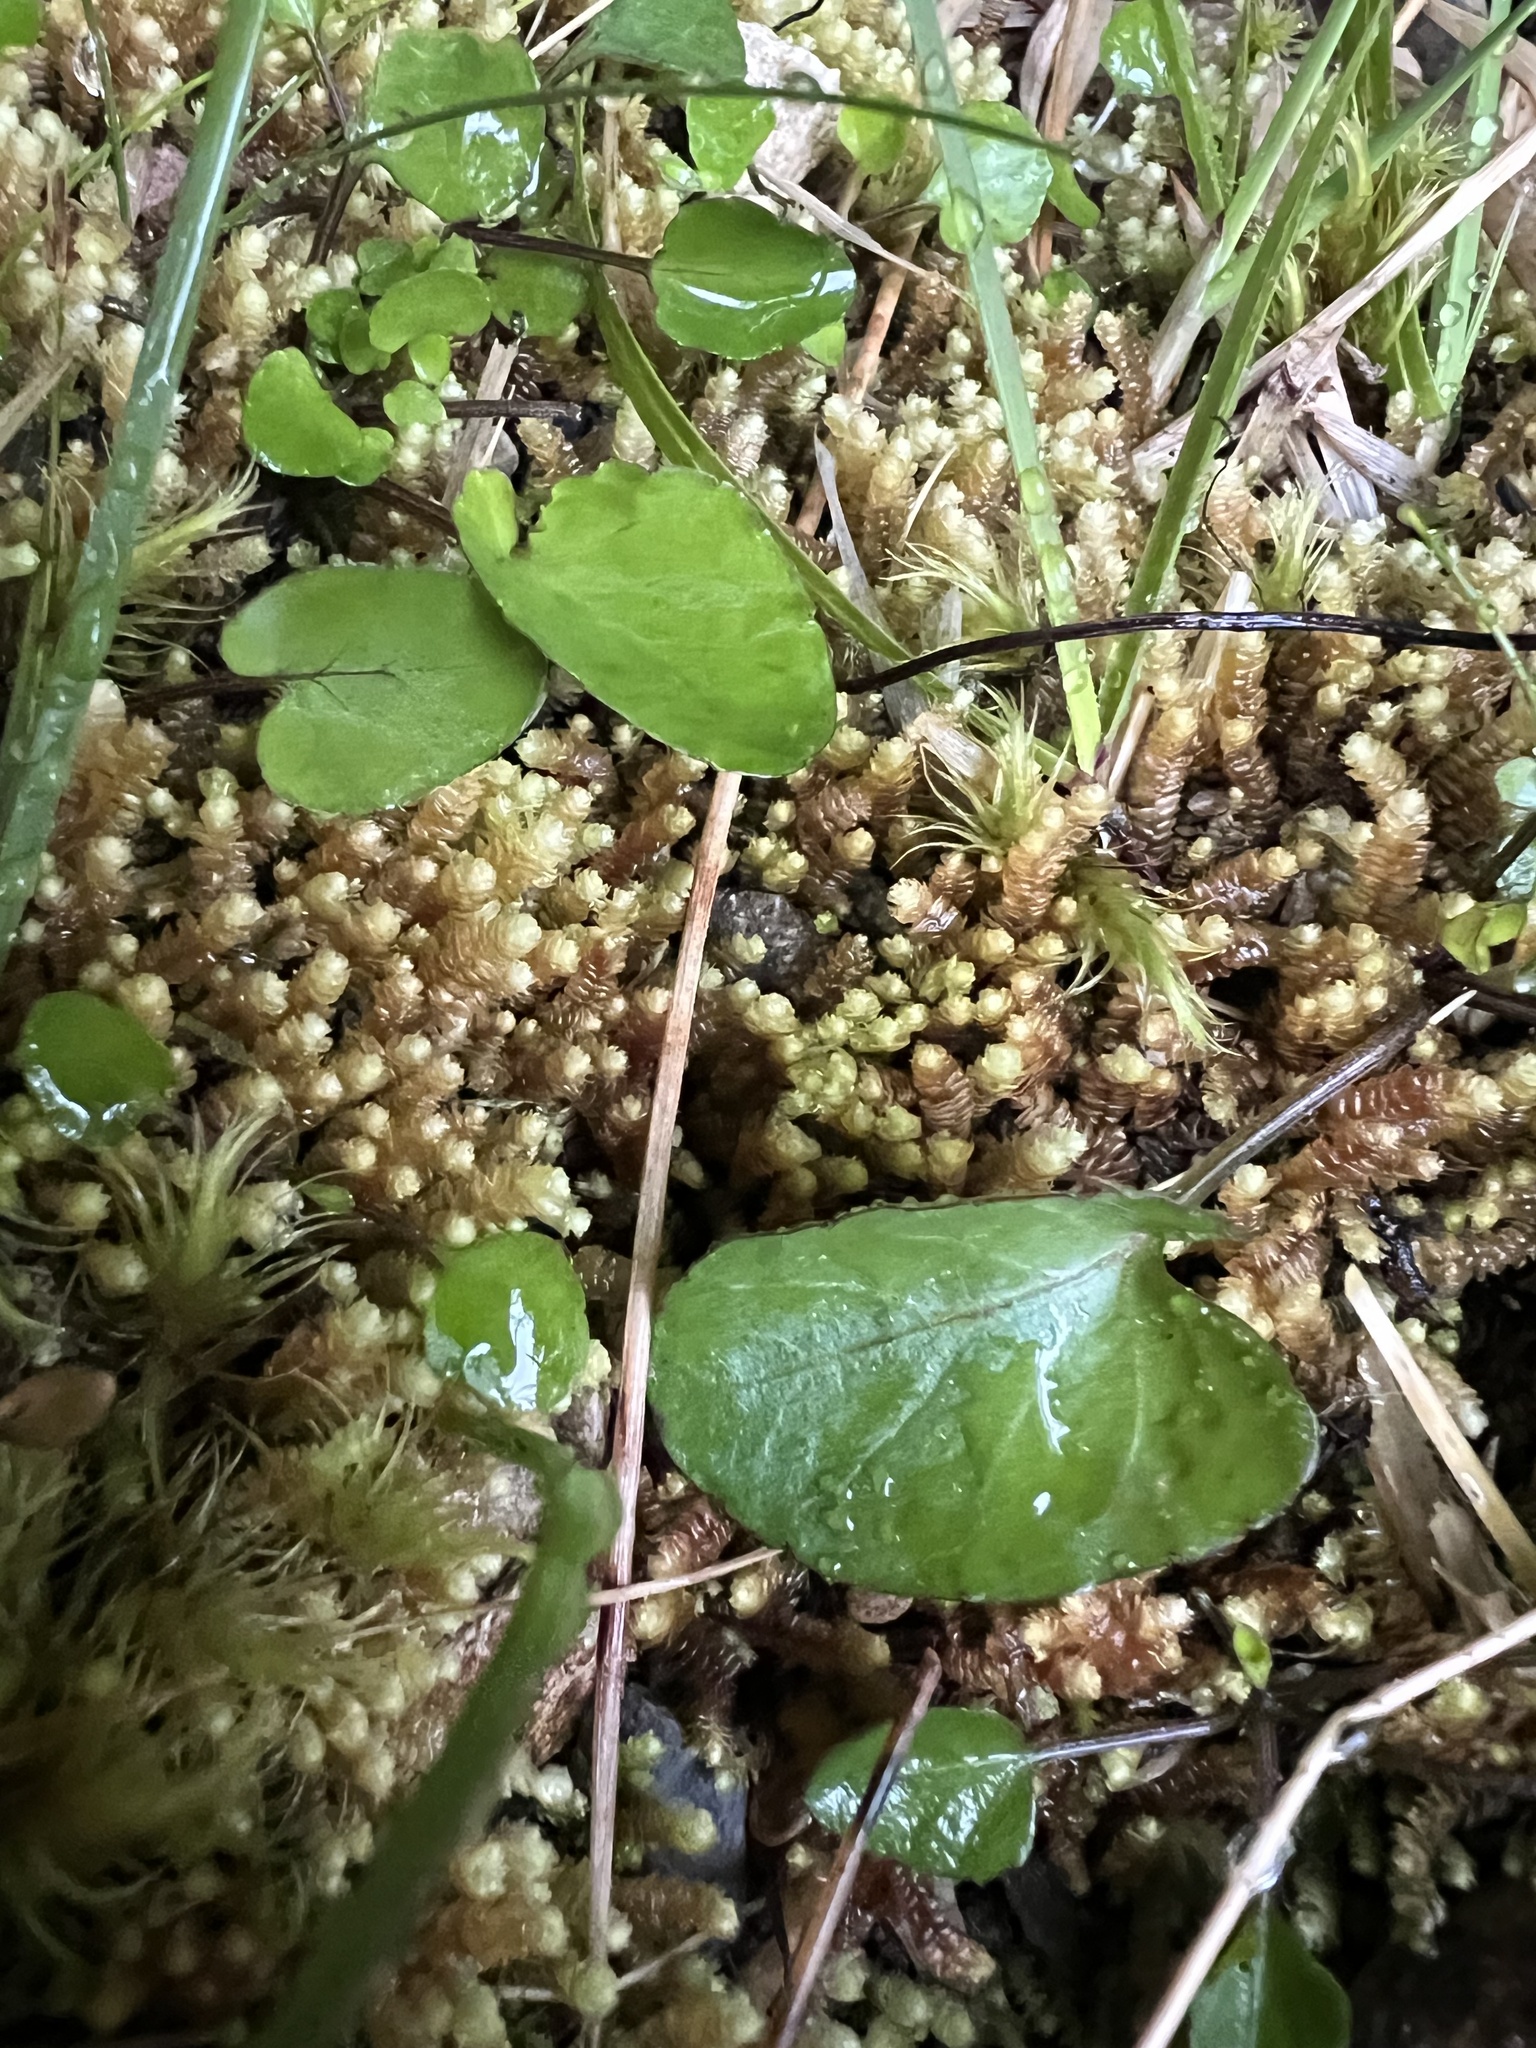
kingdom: Plantae
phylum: Tracheophyta
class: Magnoliopsida
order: Malpighiales
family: Violaceae
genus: Viola
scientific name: Viola cunninghamii
